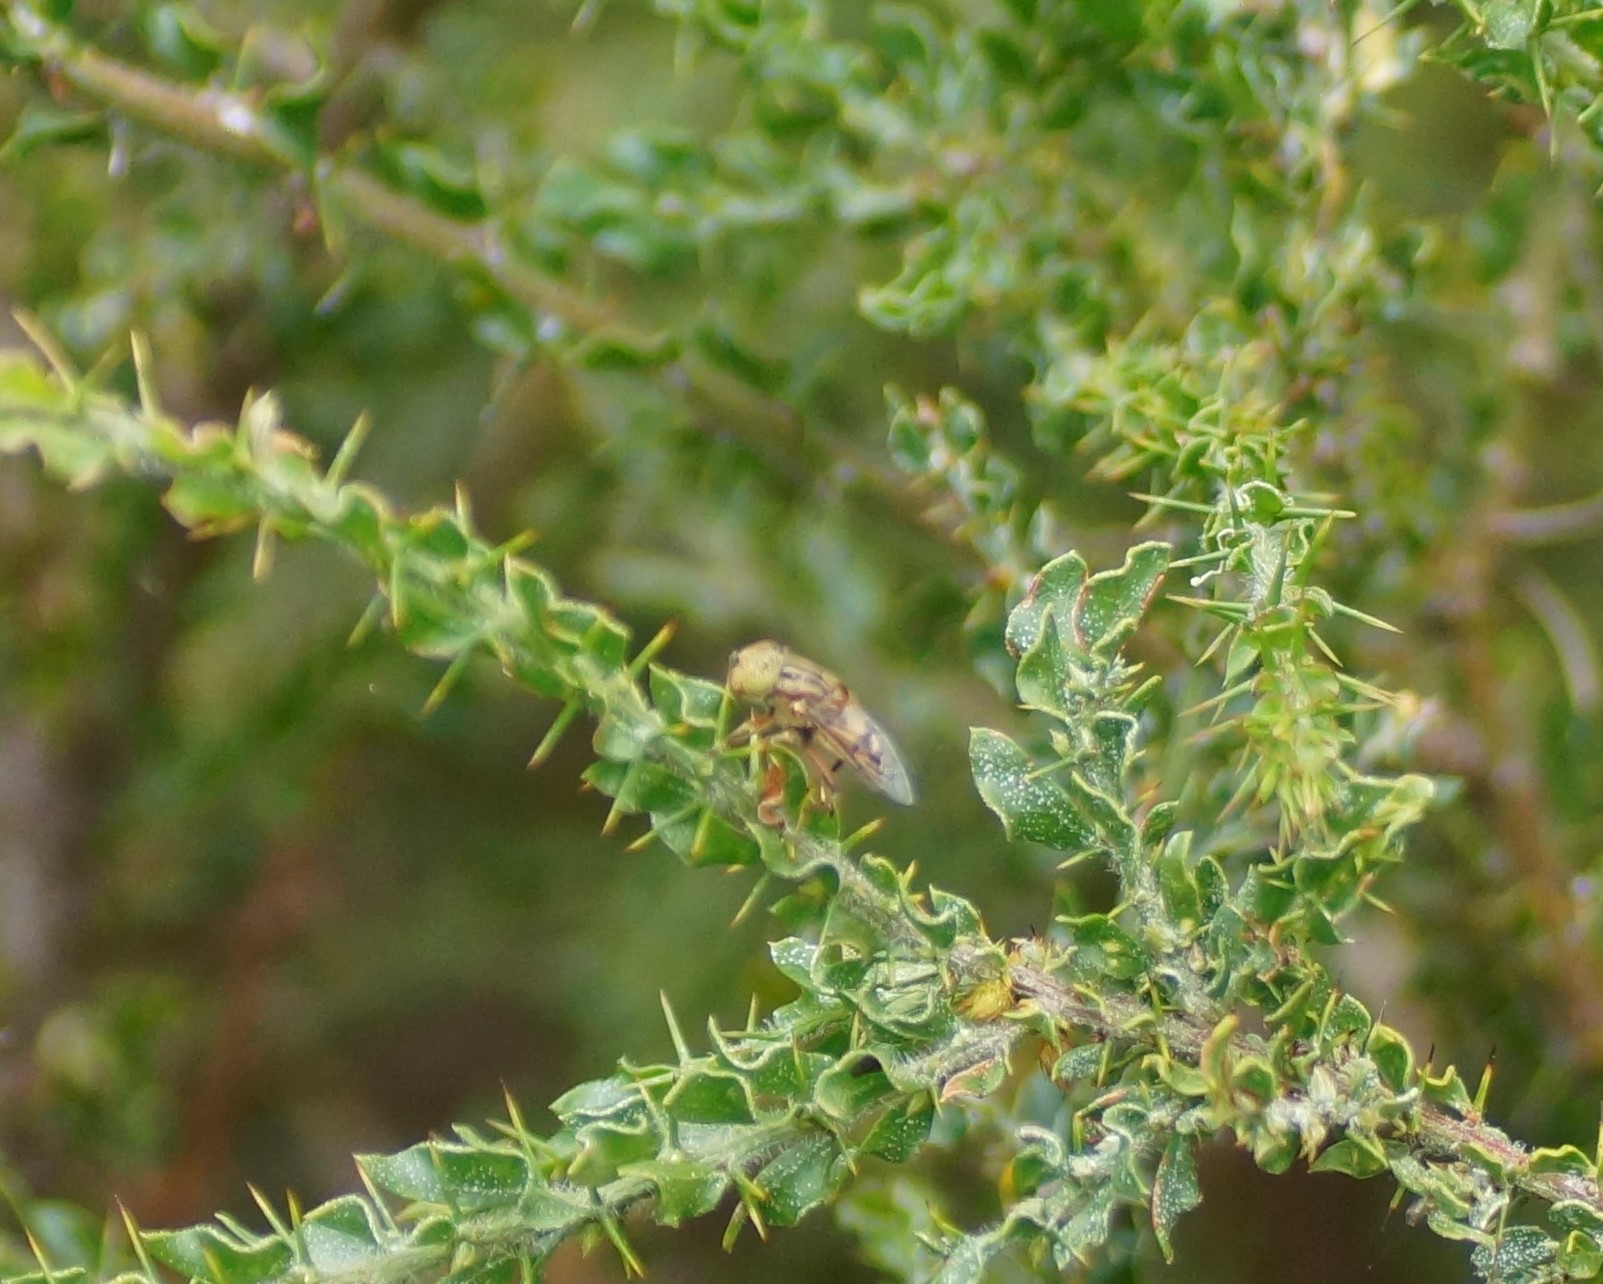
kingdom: Animalia
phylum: Arthropoda
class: Insecta
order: Diptera
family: Syrphidae
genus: Eristalinus
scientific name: Eristalinus punctulatus
